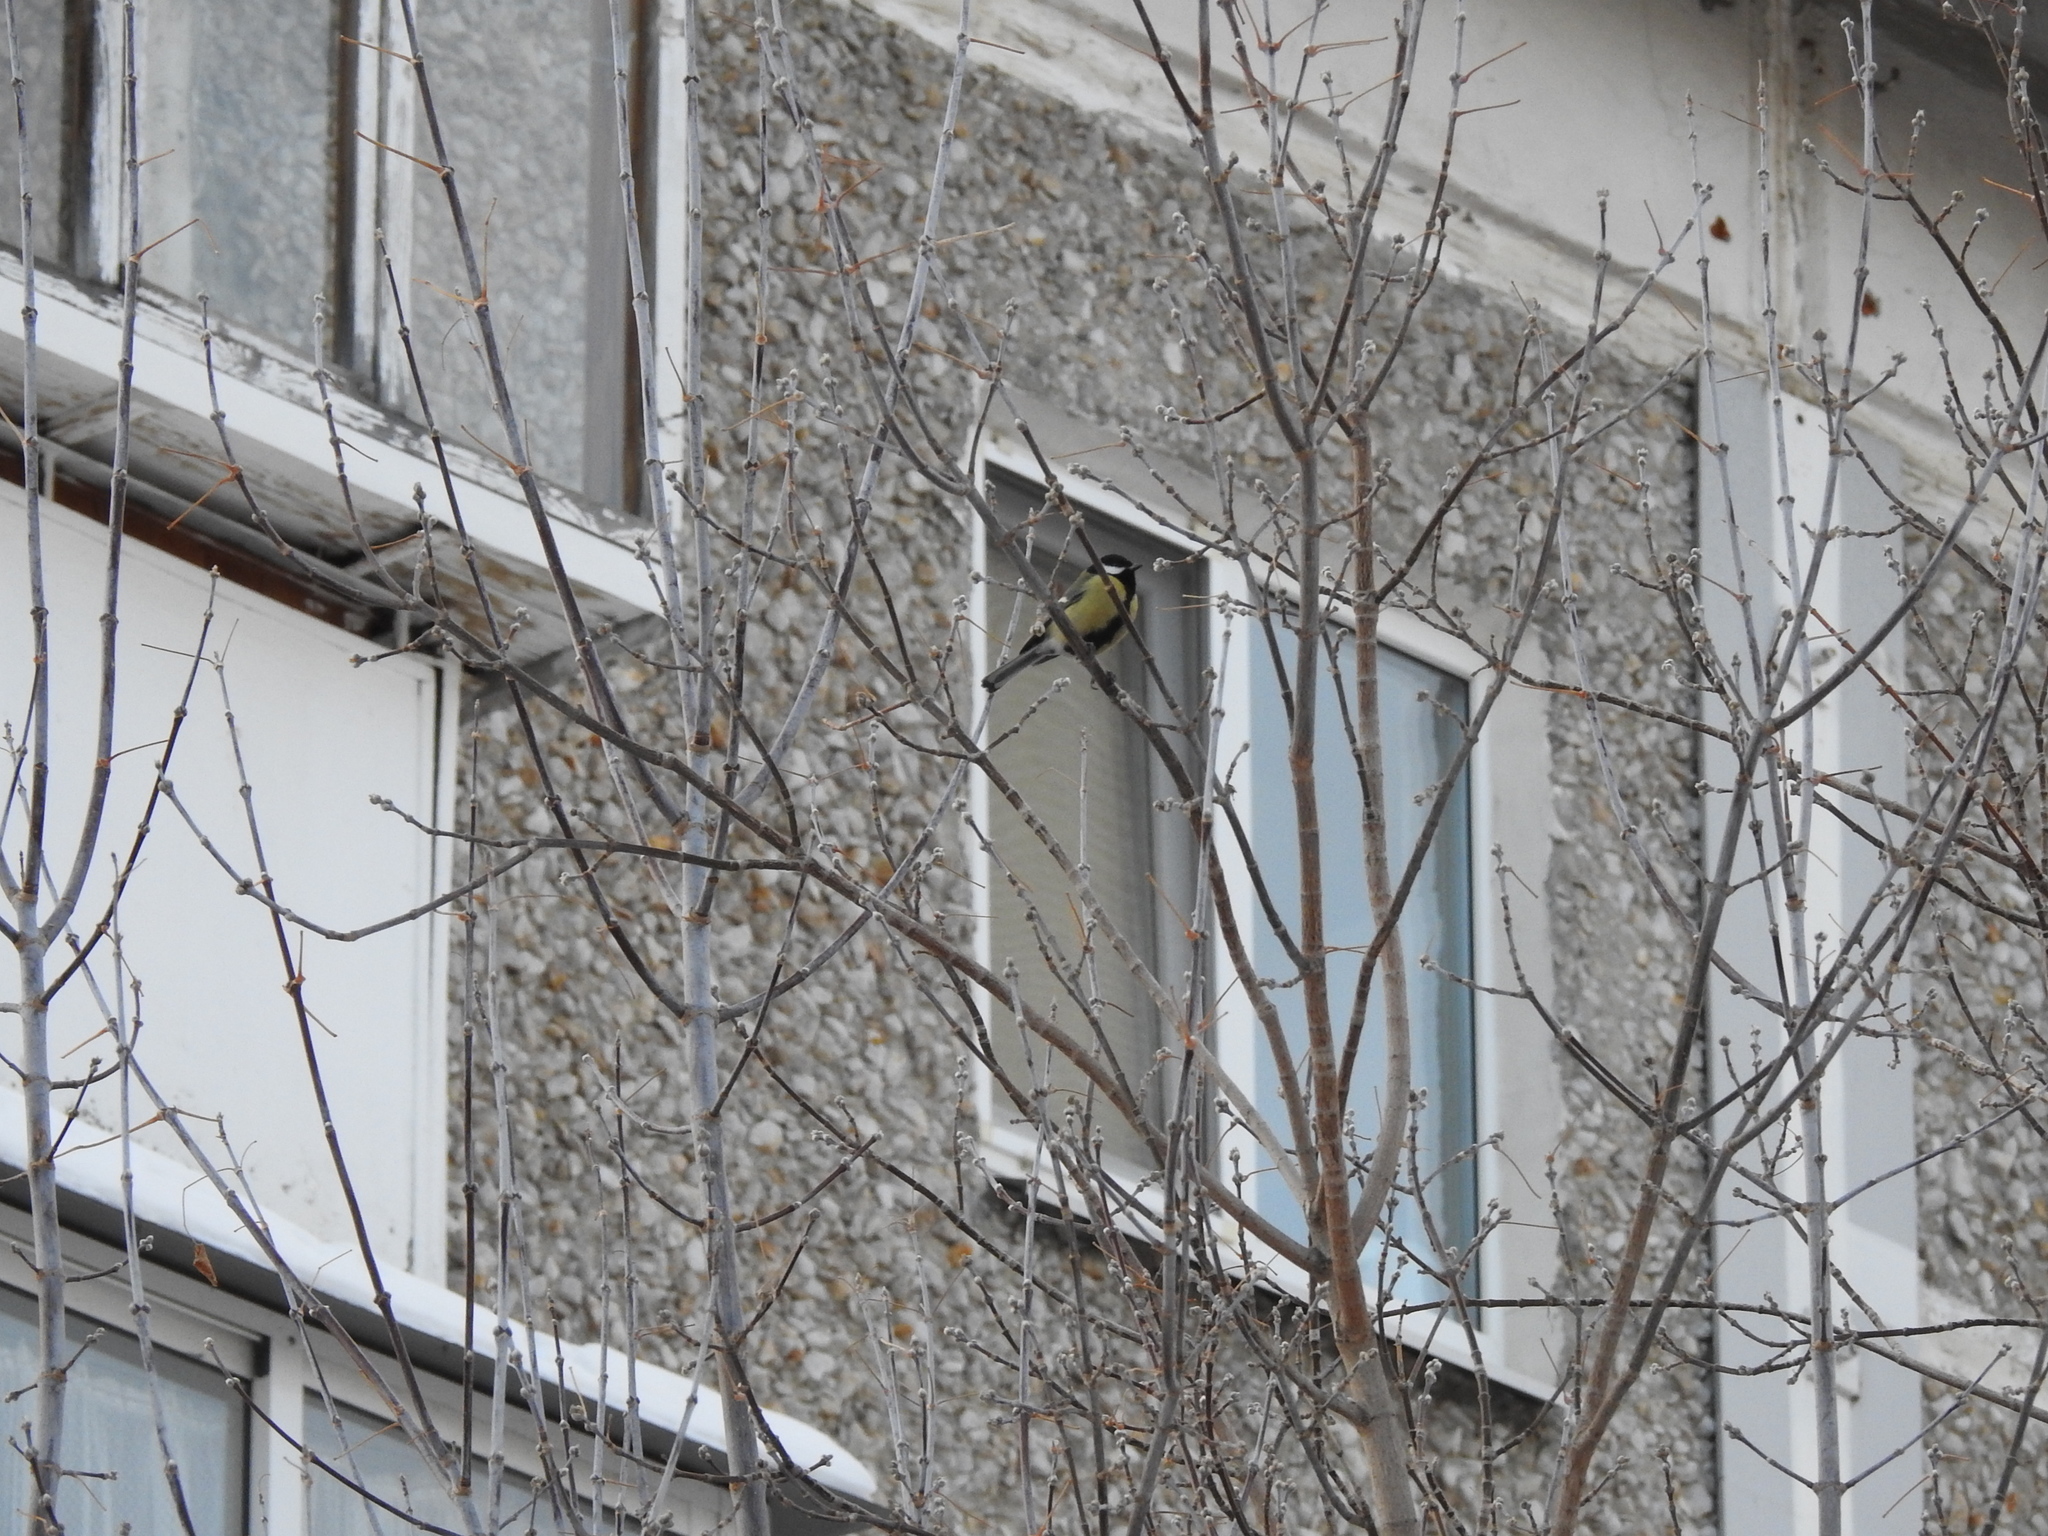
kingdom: Animalia
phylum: Chordata
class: Aves
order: Passeriformes
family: Paridae
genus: Parus
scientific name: Parus major
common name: Great tit
